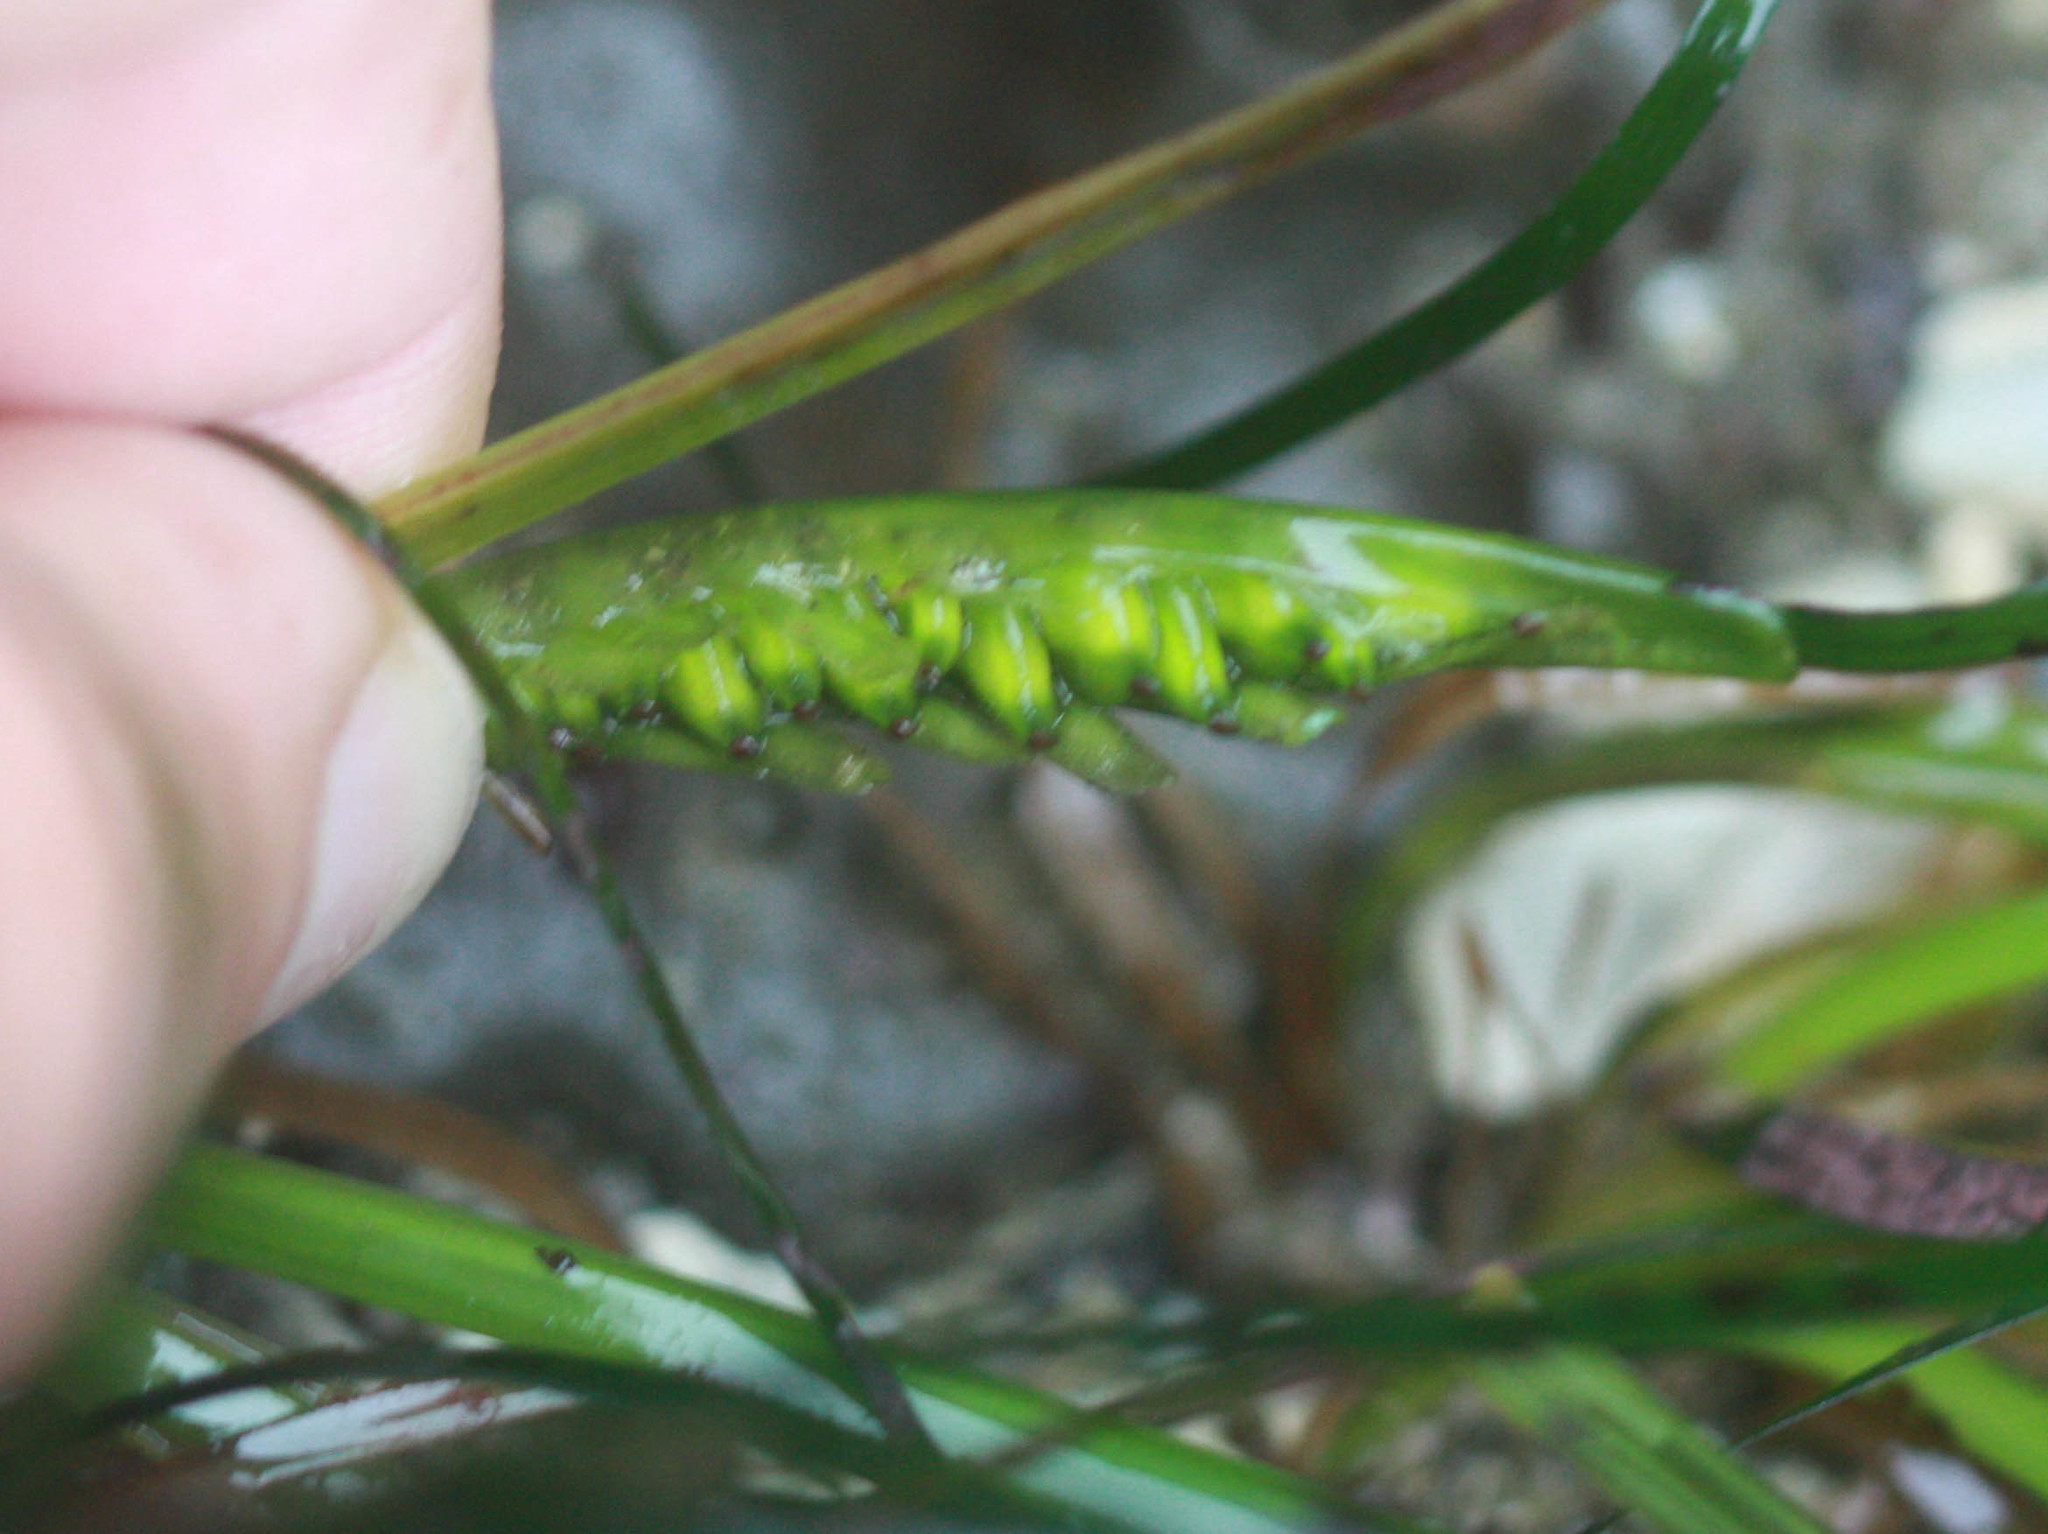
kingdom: Plantae
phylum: Tracheophyta
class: Liliopsida
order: Alismatales
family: Zosteraceae
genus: Phyllospadix
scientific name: Phyllospadix scouleri
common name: Species code: ps
